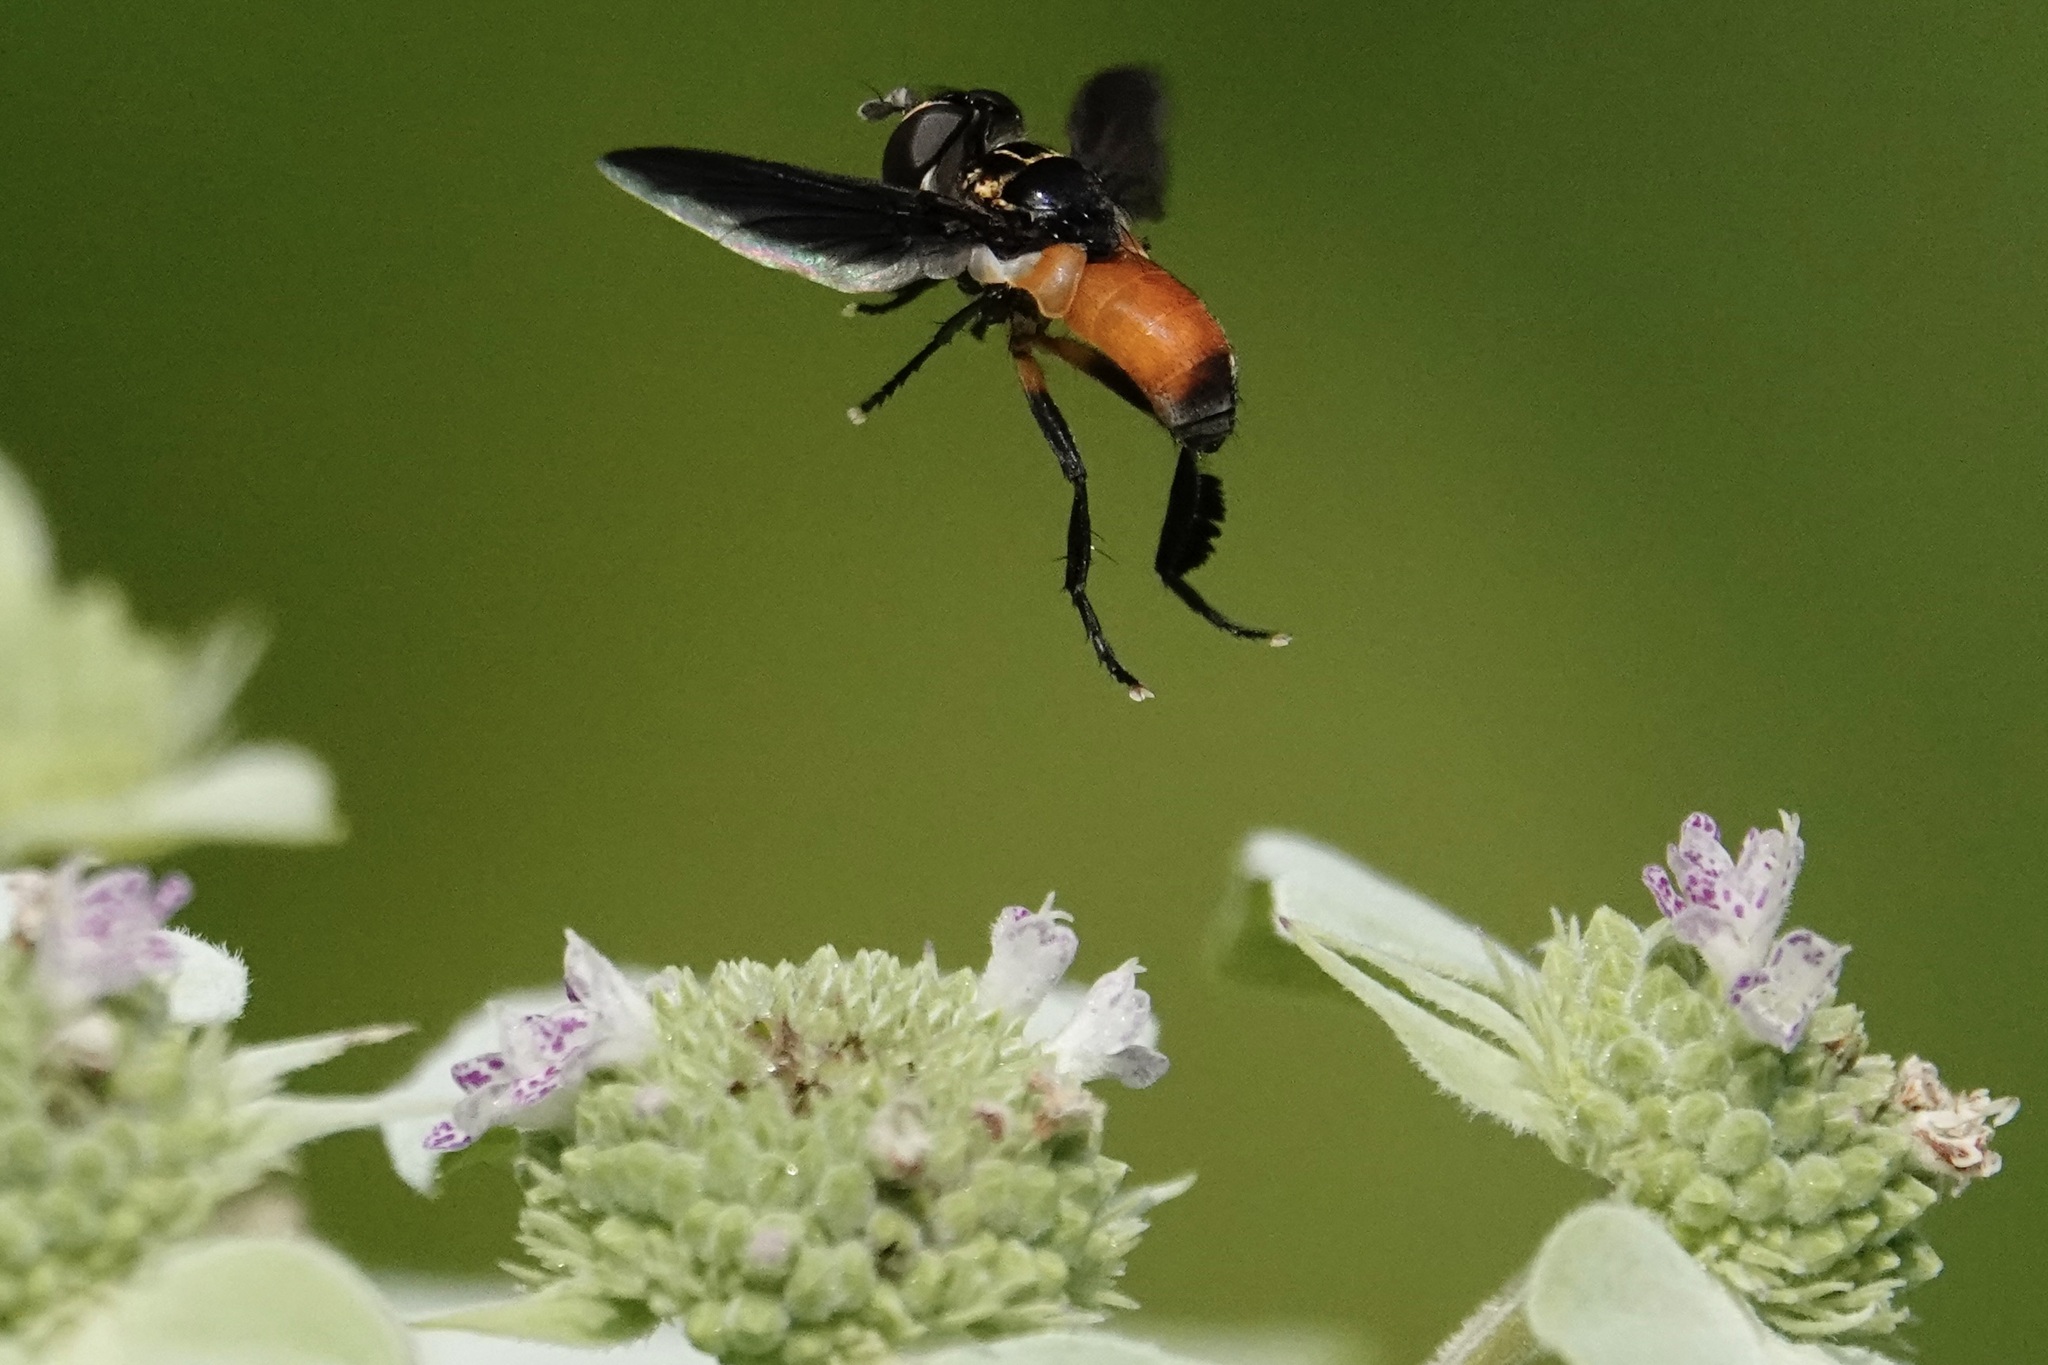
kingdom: Animalia
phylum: Arthropoda
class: Insecta
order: Diptera
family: Tachinidae
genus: Trichopoda
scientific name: Trichopoda pennipes
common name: Tachinid fly
